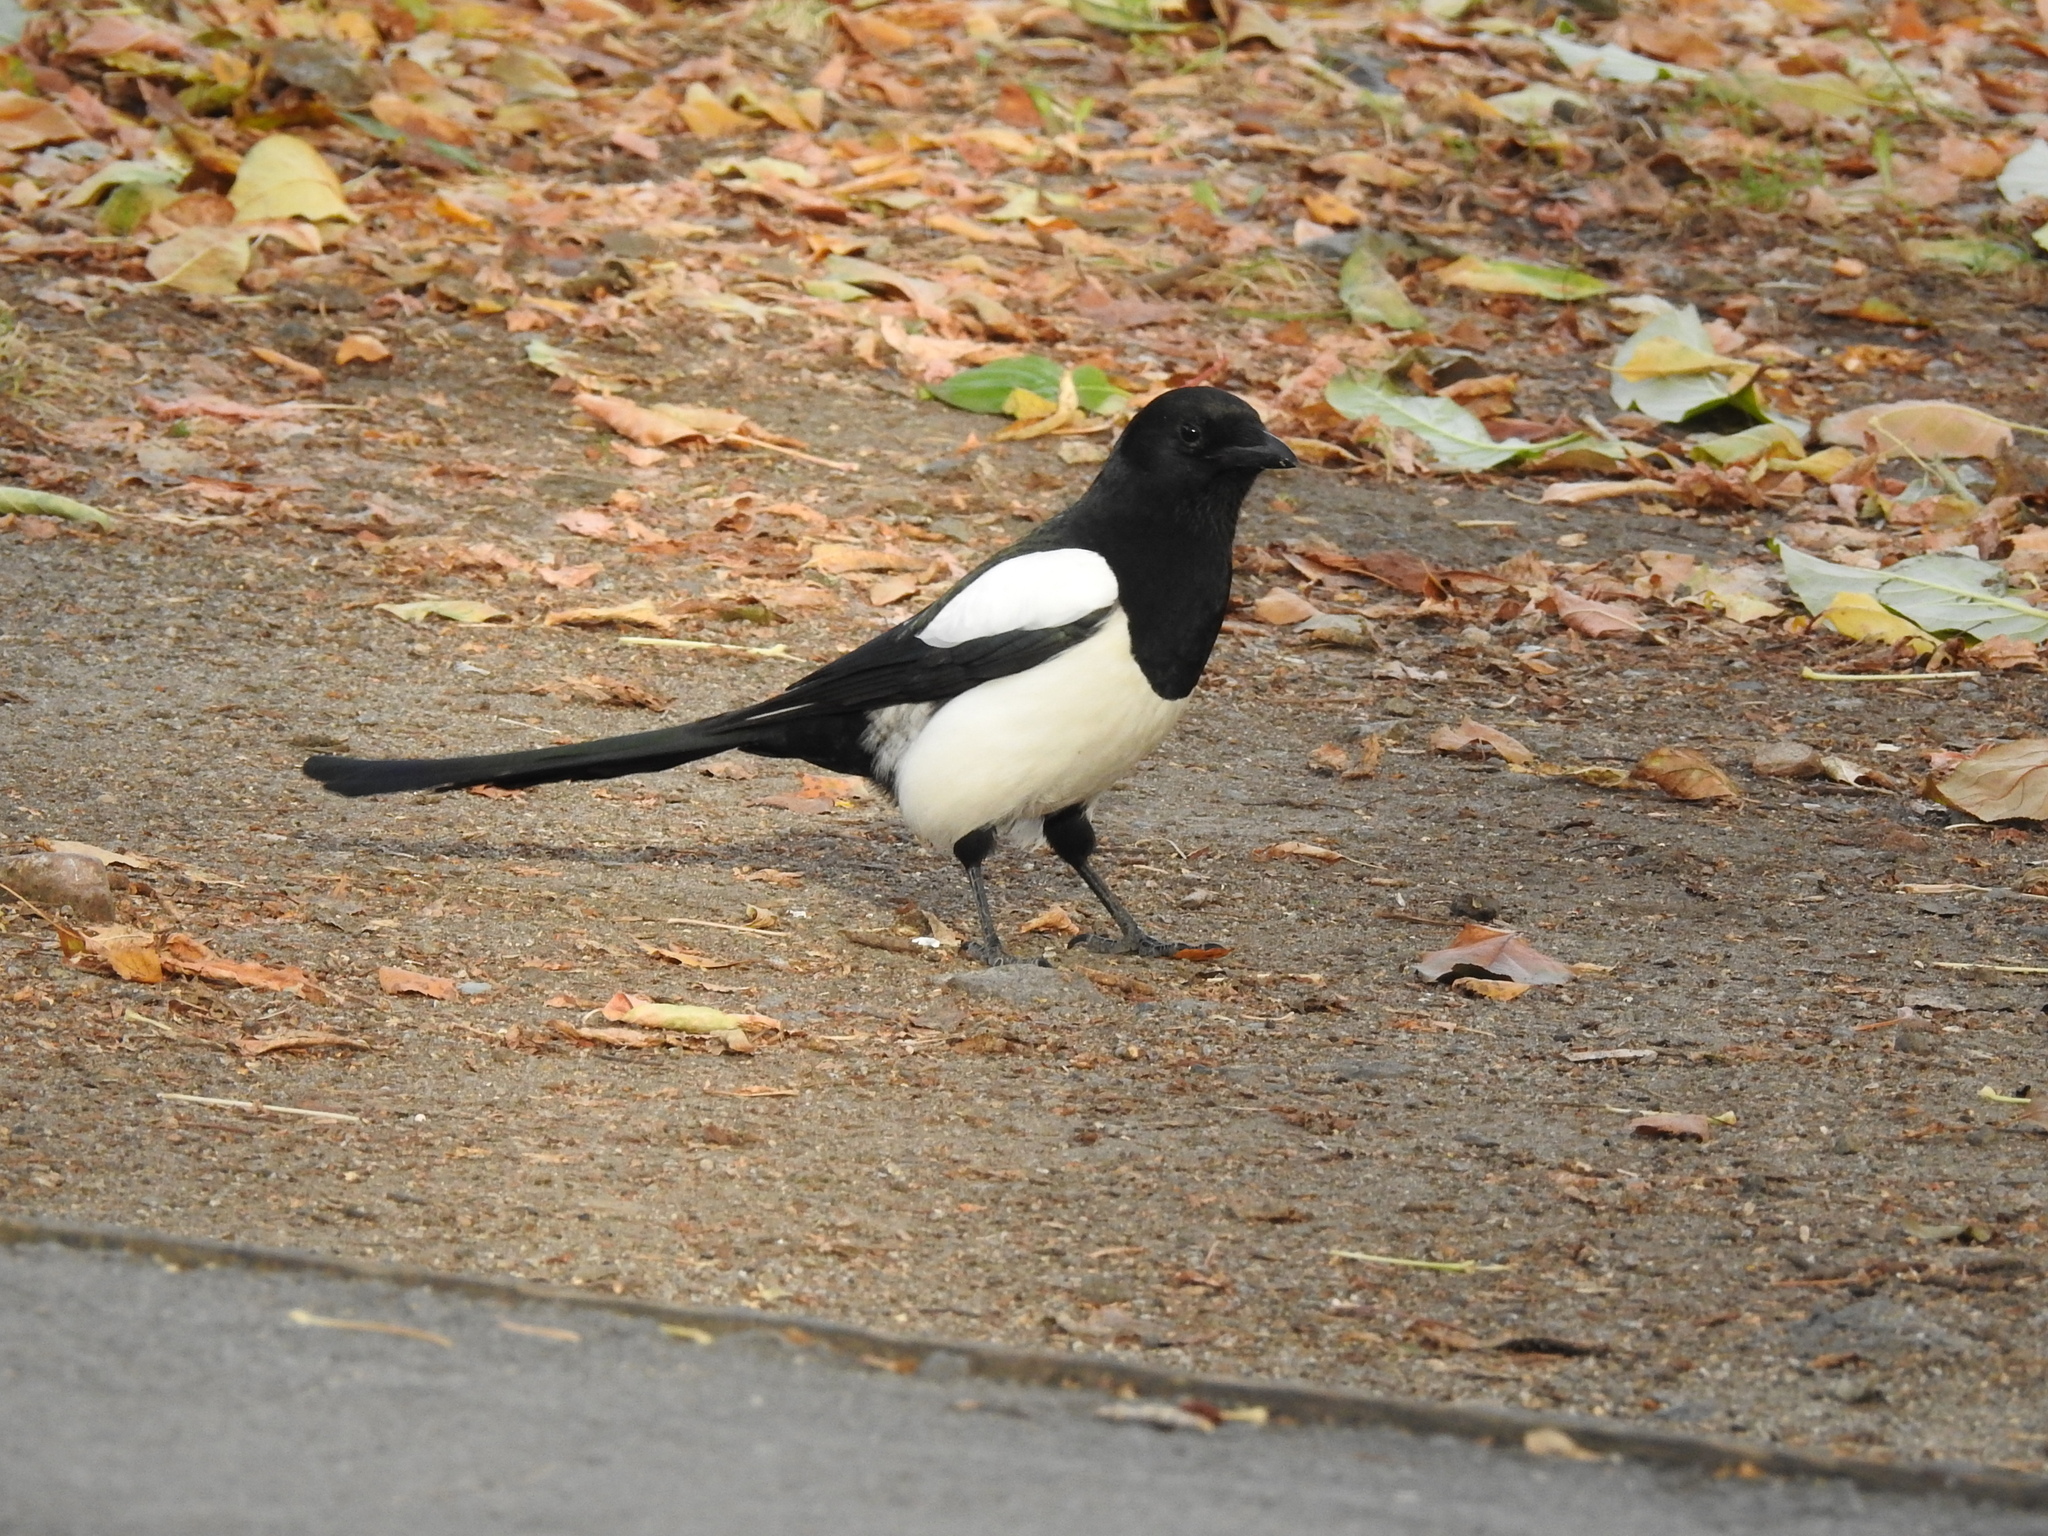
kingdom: Animalia
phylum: Chordata
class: Aves
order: Passeriformes
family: Corvidae
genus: Pica
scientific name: Pica pica
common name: Eurasian magpie
